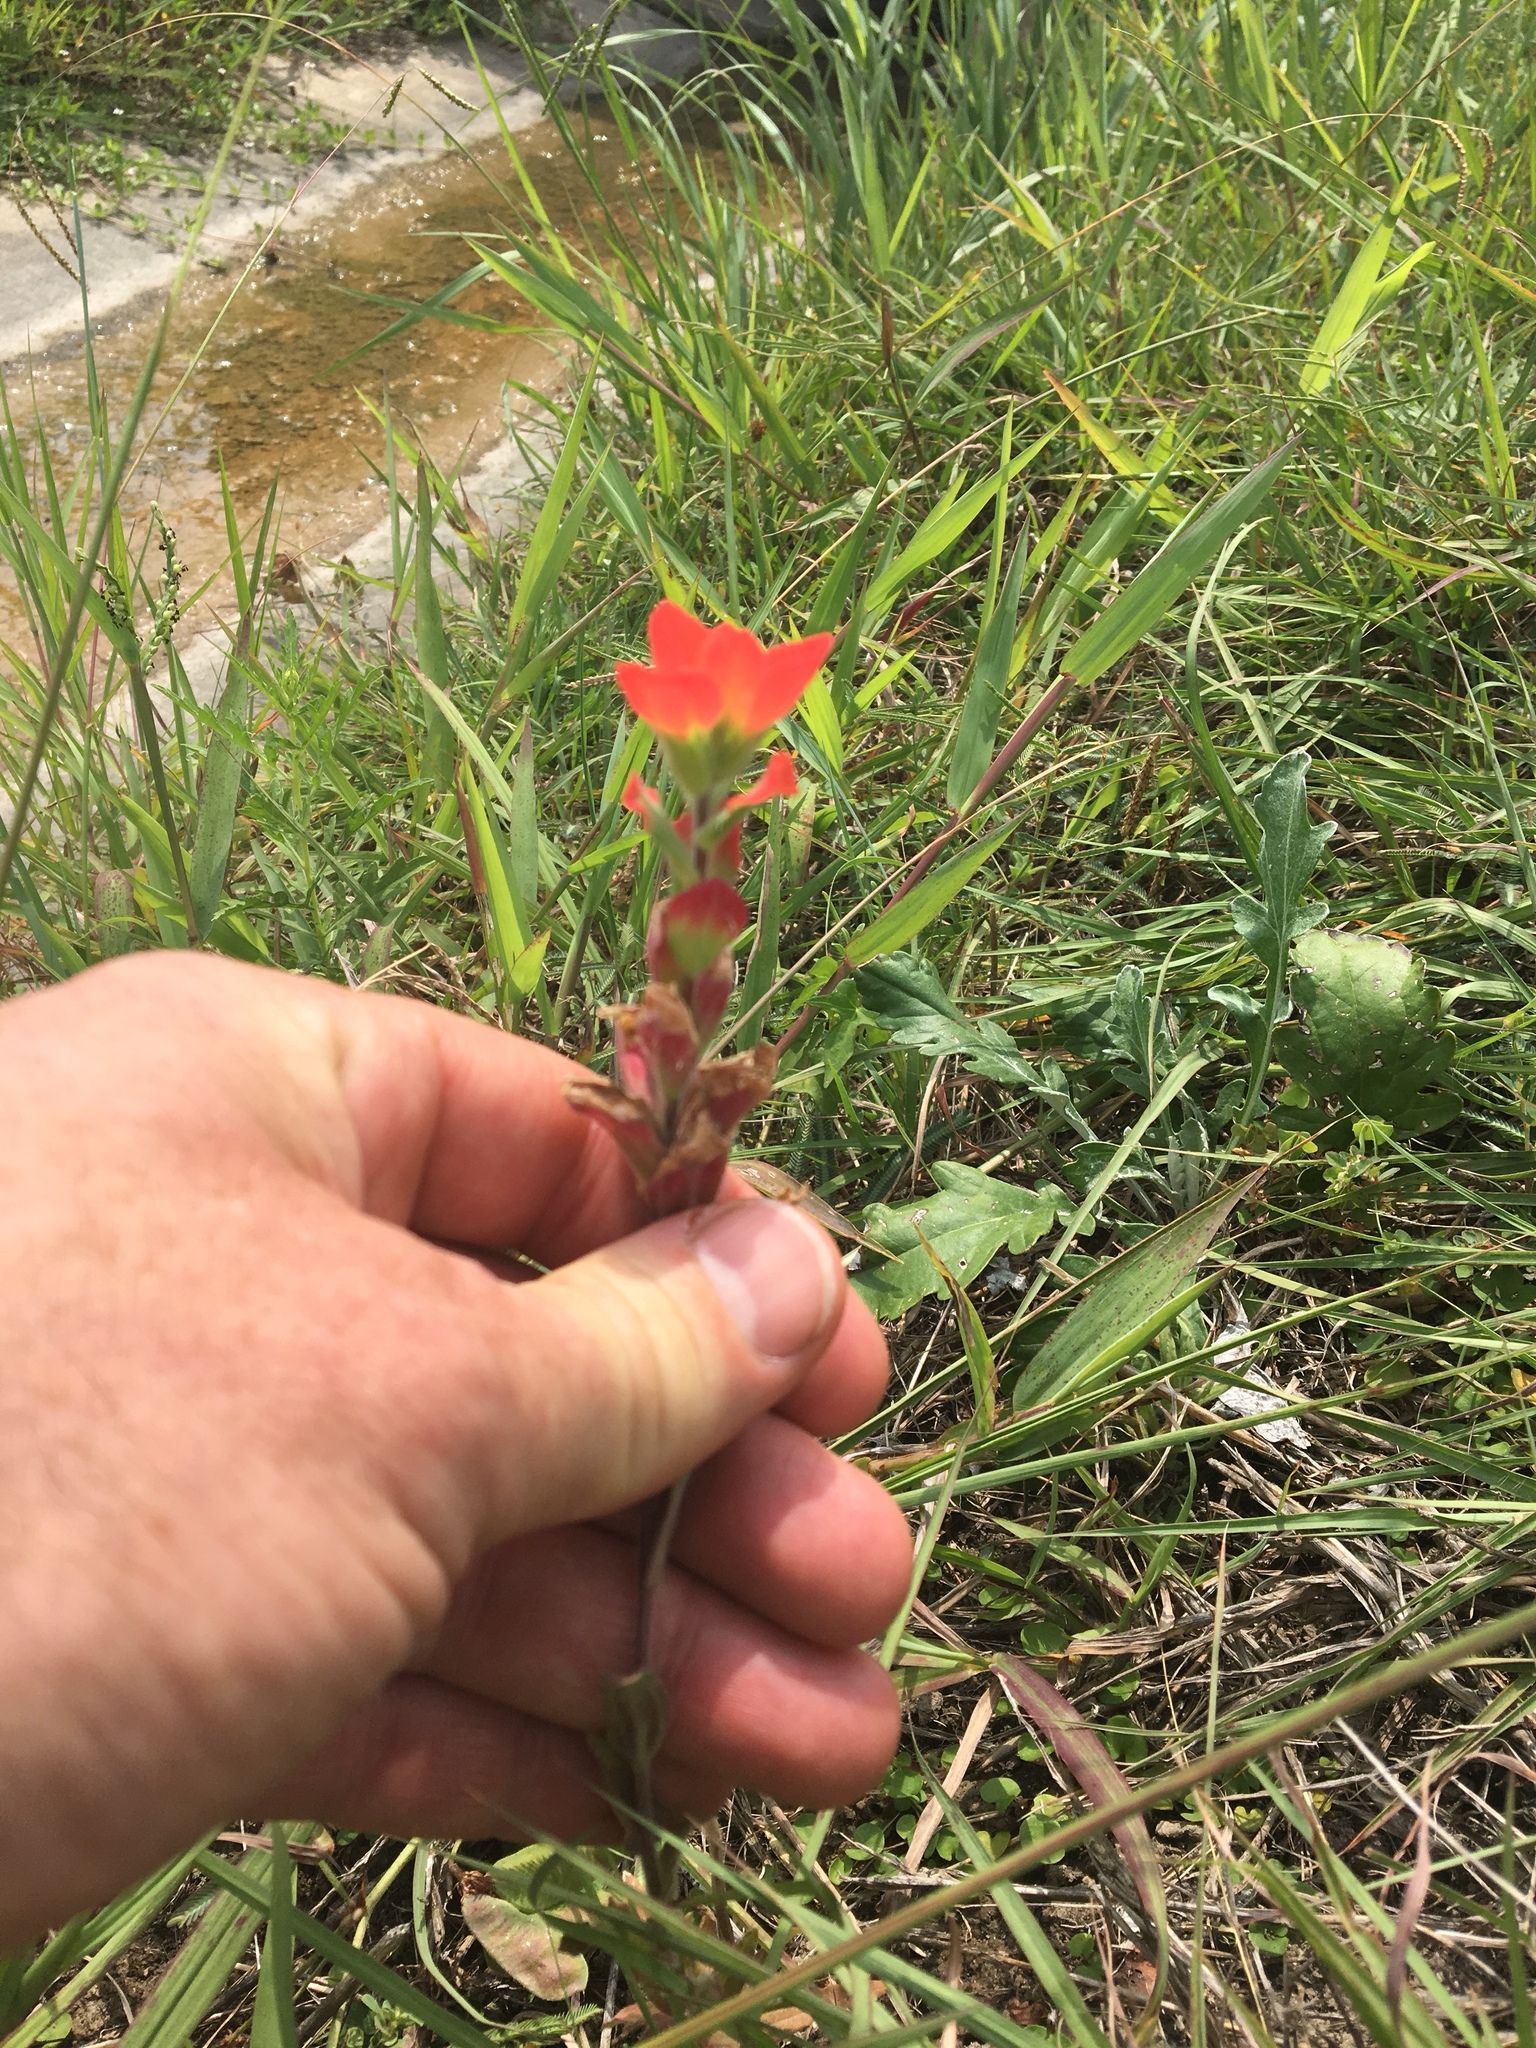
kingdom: Plantae
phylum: Tracheophyta
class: Magnoliopsida
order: Lamiales
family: Orobanchaceae
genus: Castilleja
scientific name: Castilleja indivisa
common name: Texas paintbrush
